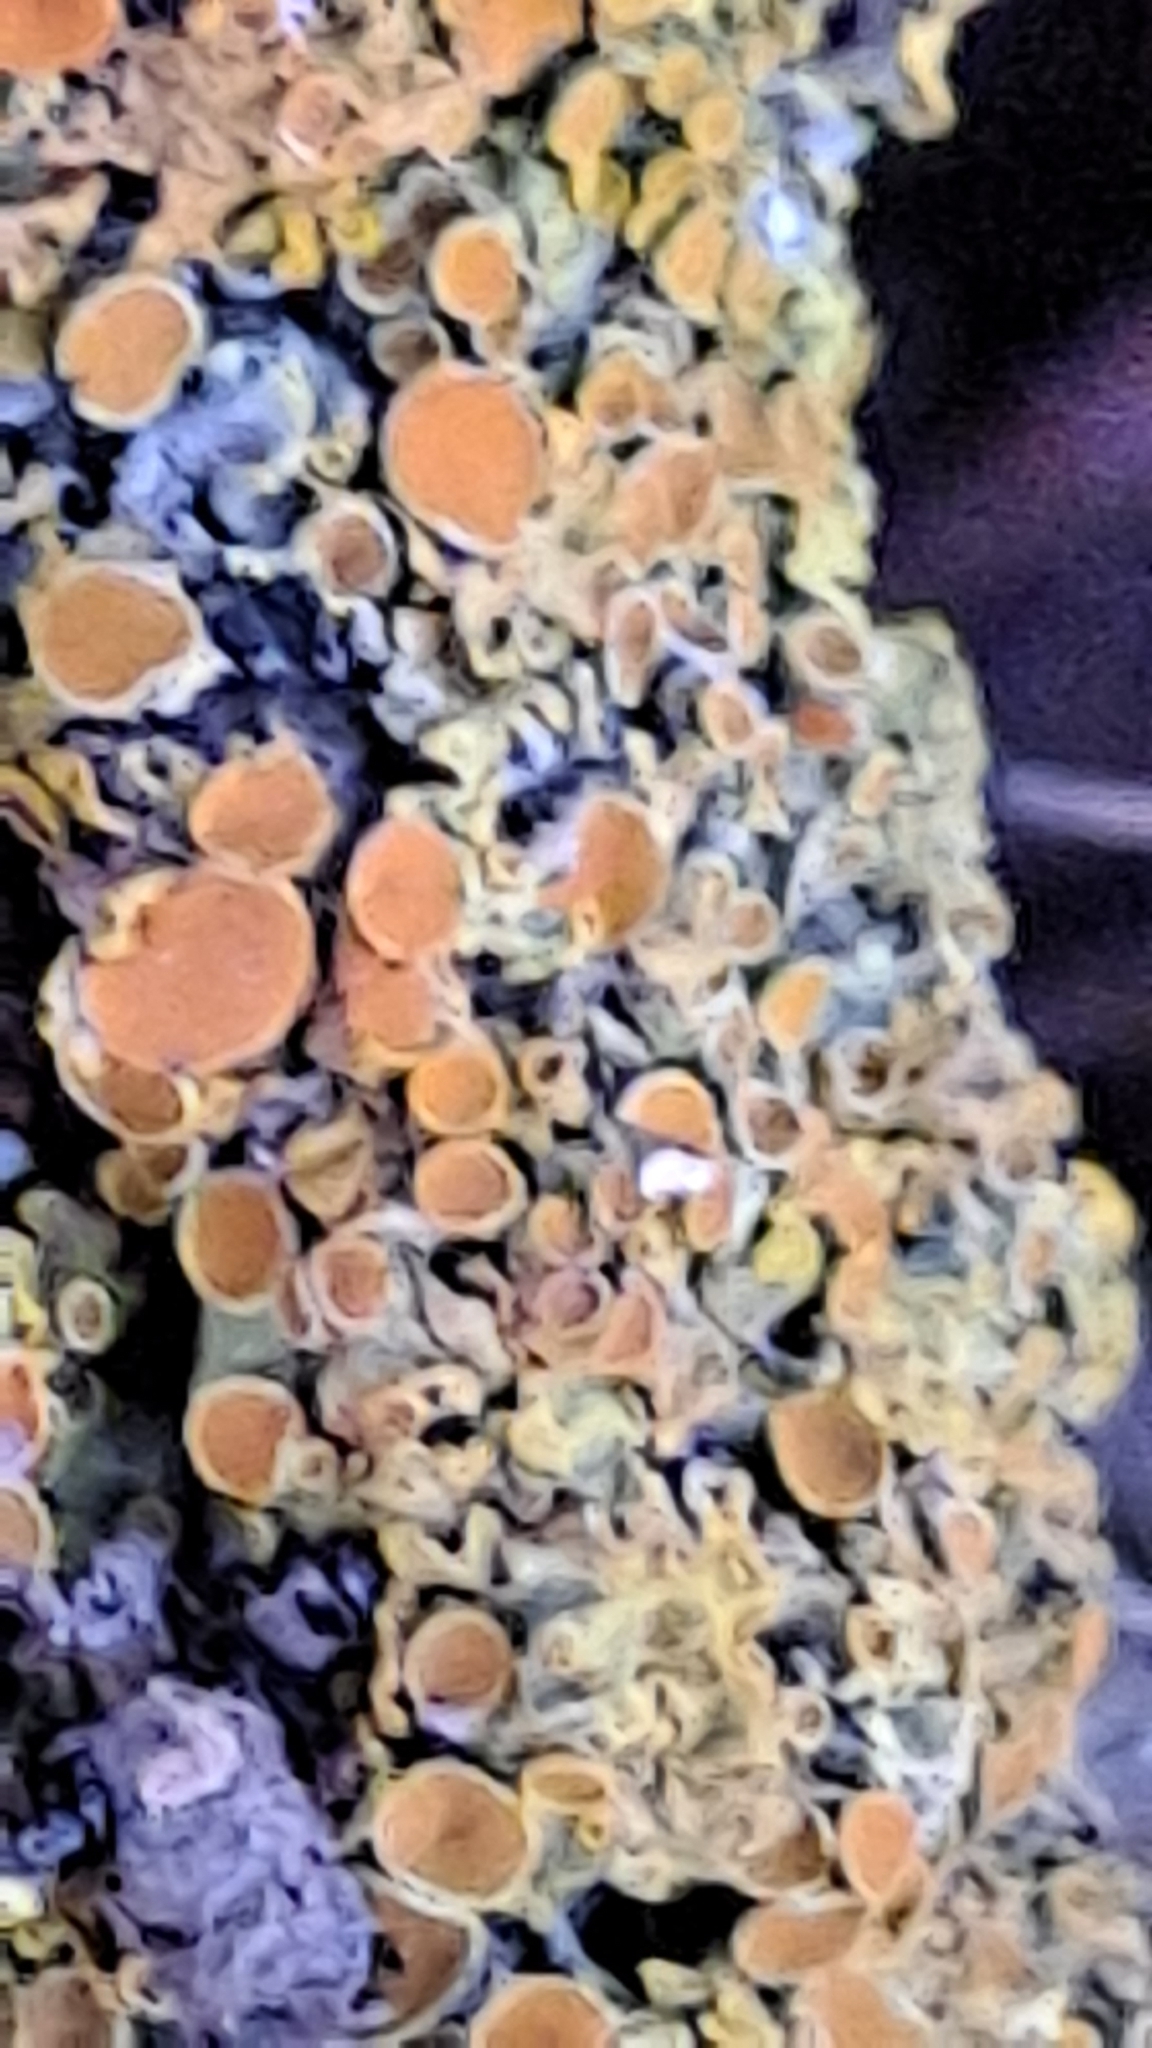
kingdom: Fungi
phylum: Ascomycota
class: Lecanoromycetes
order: Teloschistales
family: Teloschistaceae
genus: Xanthoria
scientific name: Xanthoria parietina
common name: Common orange lichen
